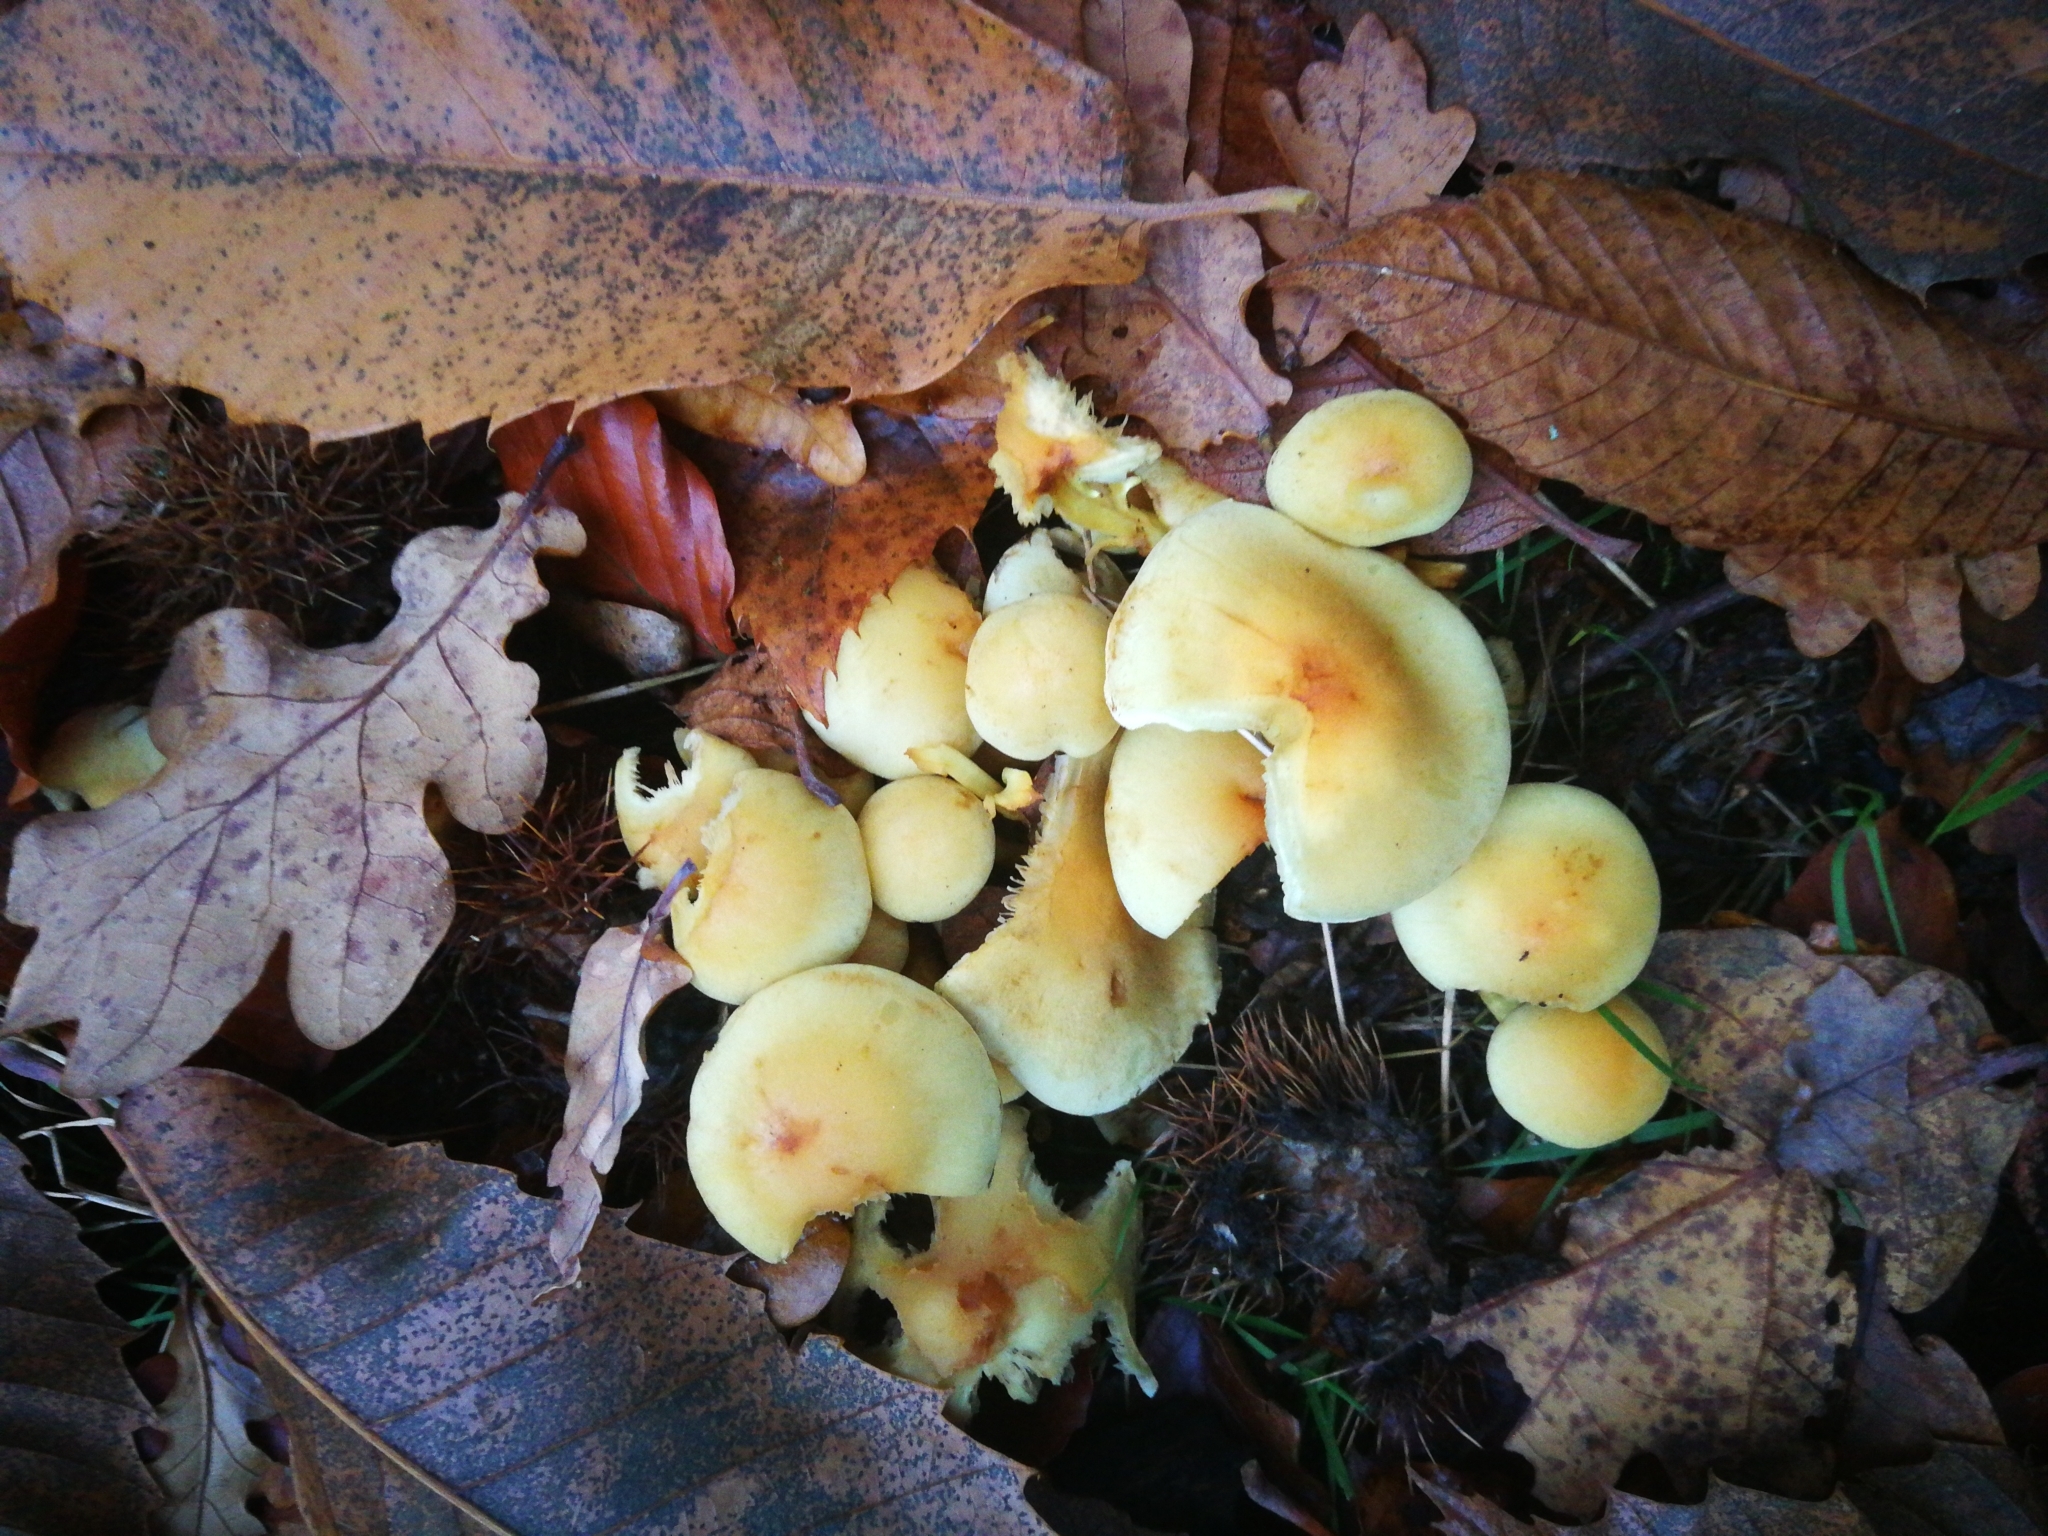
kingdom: Fungi
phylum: Basidiomycota
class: Agaricomycetes
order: Agaricales
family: Strophariaceae
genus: Hypholoma
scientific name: Hypholoma fasciculare
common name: Sulphur tuft
